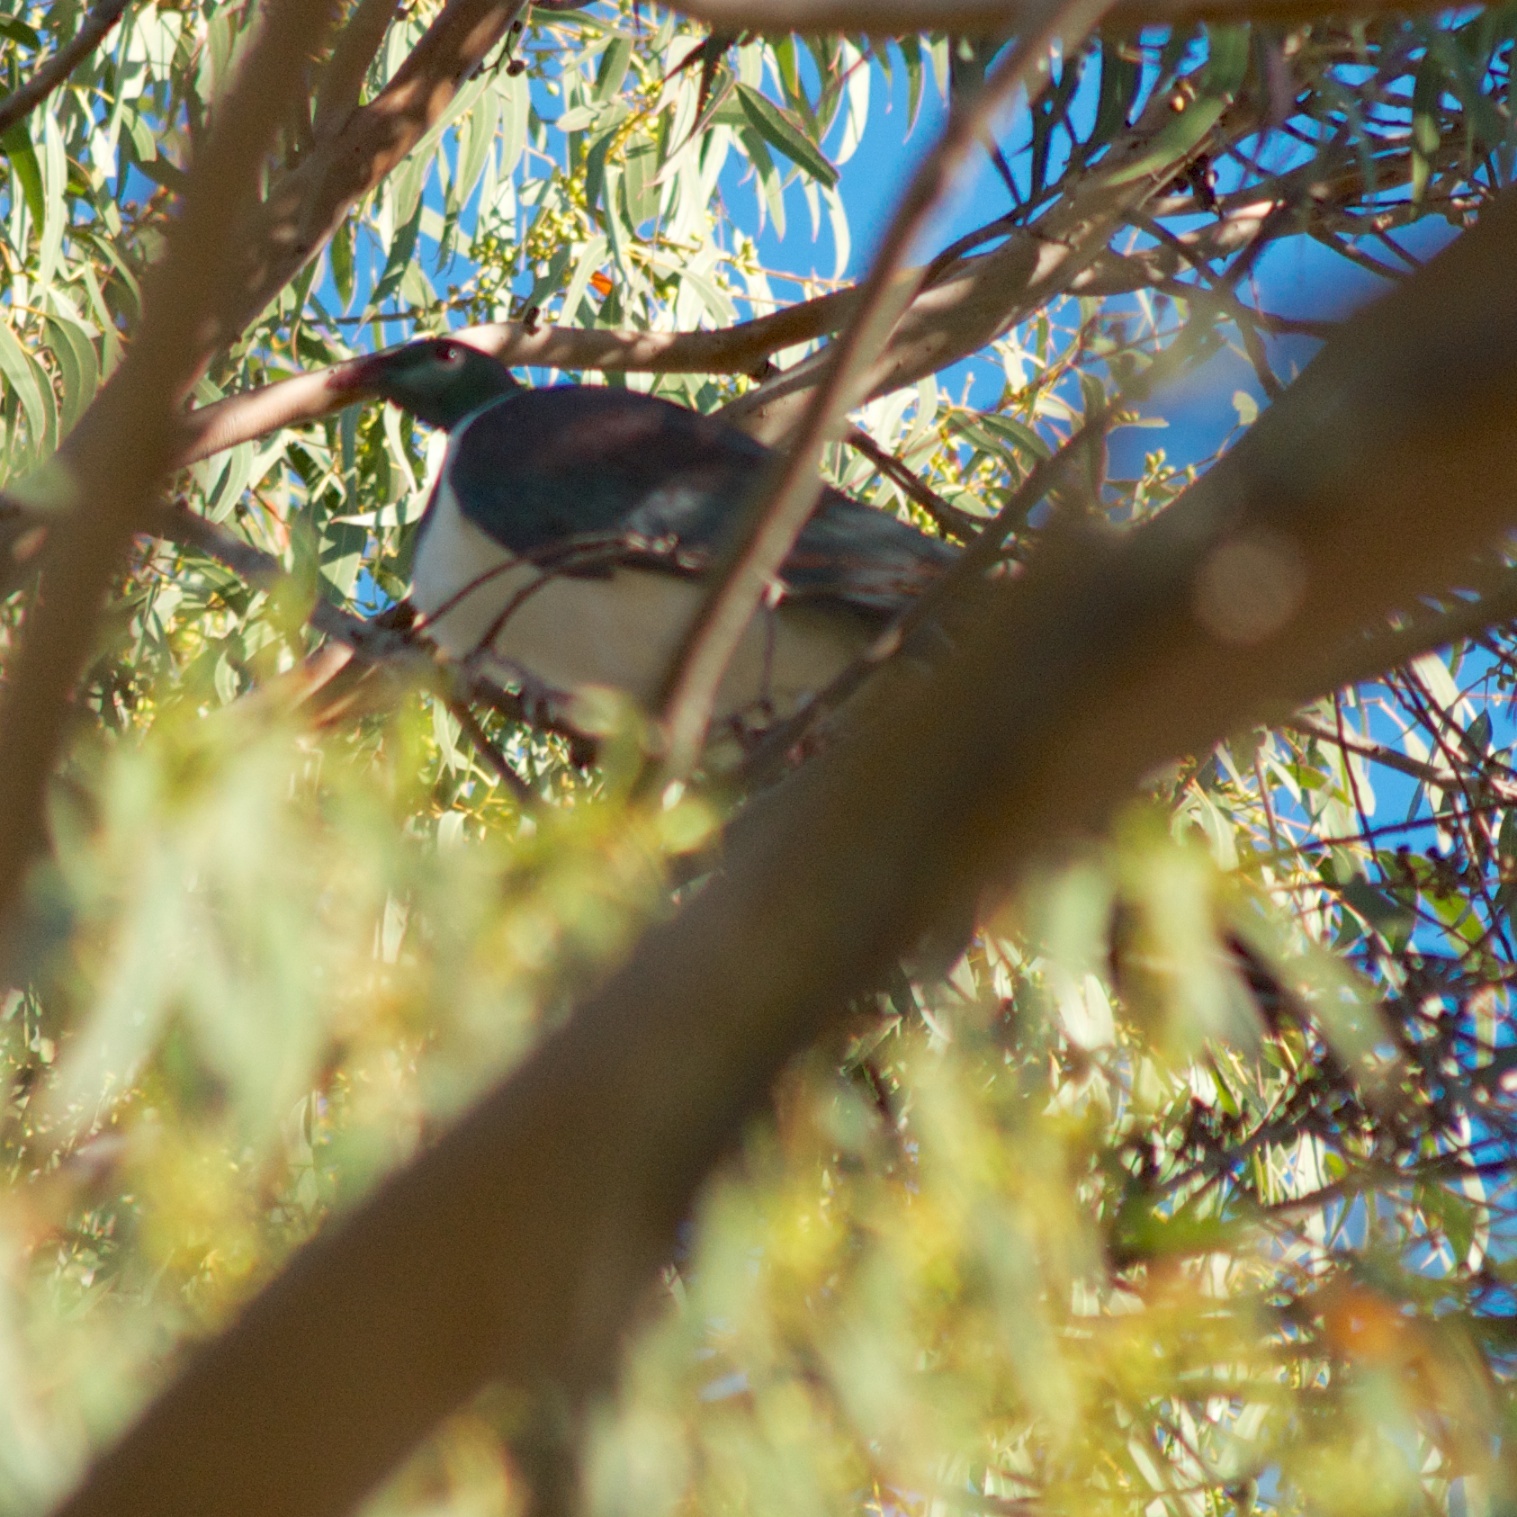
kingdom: Animalia
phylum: Chordata
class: Aves
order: Columbiformes
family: Columbidae
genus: Hemiphaga
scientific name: Hemiphaga novaeseelandiae
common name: New zealand pigeon
